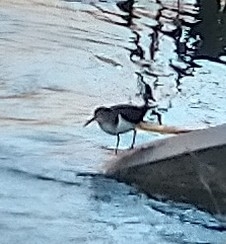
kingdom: Animalia
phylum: Chordata
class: Aves
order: Charadriiformes
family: Scolopacidae
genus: Actitis
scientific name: Actitis hypoleucos
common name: Common sandpiper
